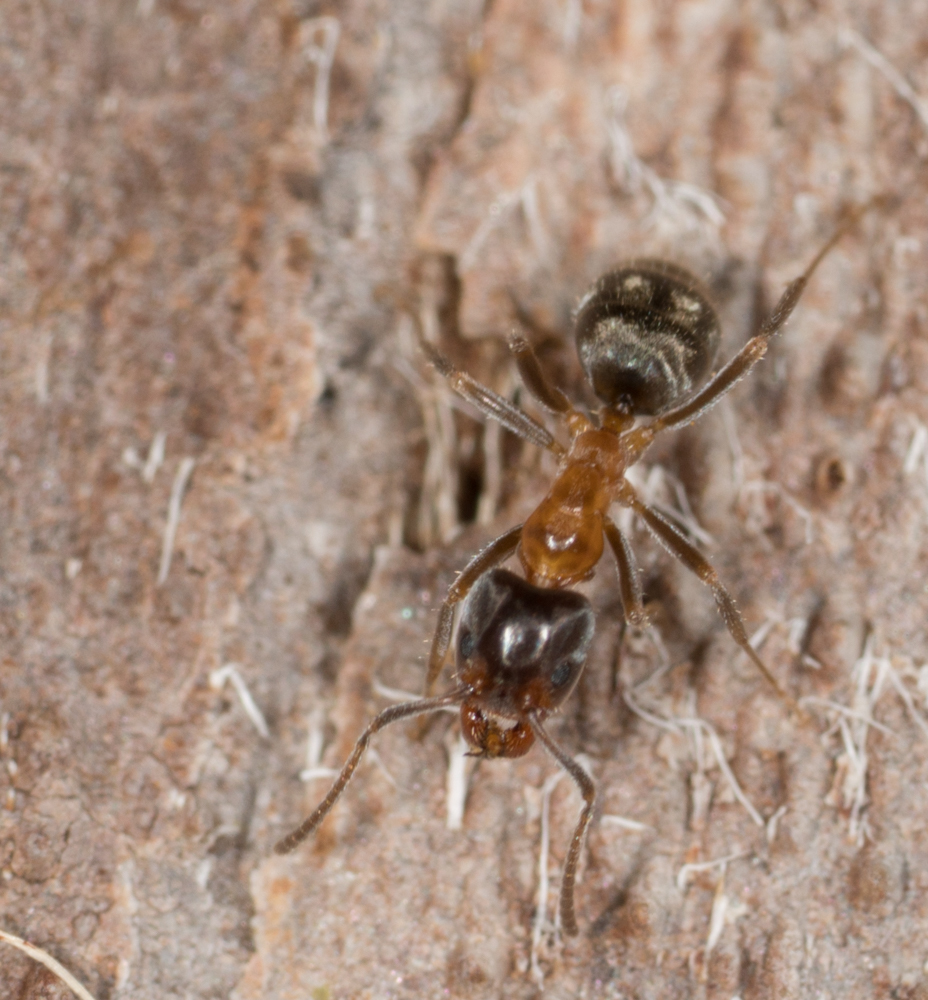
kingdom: Animalia
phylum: Arthropoda
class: Insecta
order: Hymenoptera
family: Formicidae
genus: Liometopum
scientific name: Liometopum occidentale
